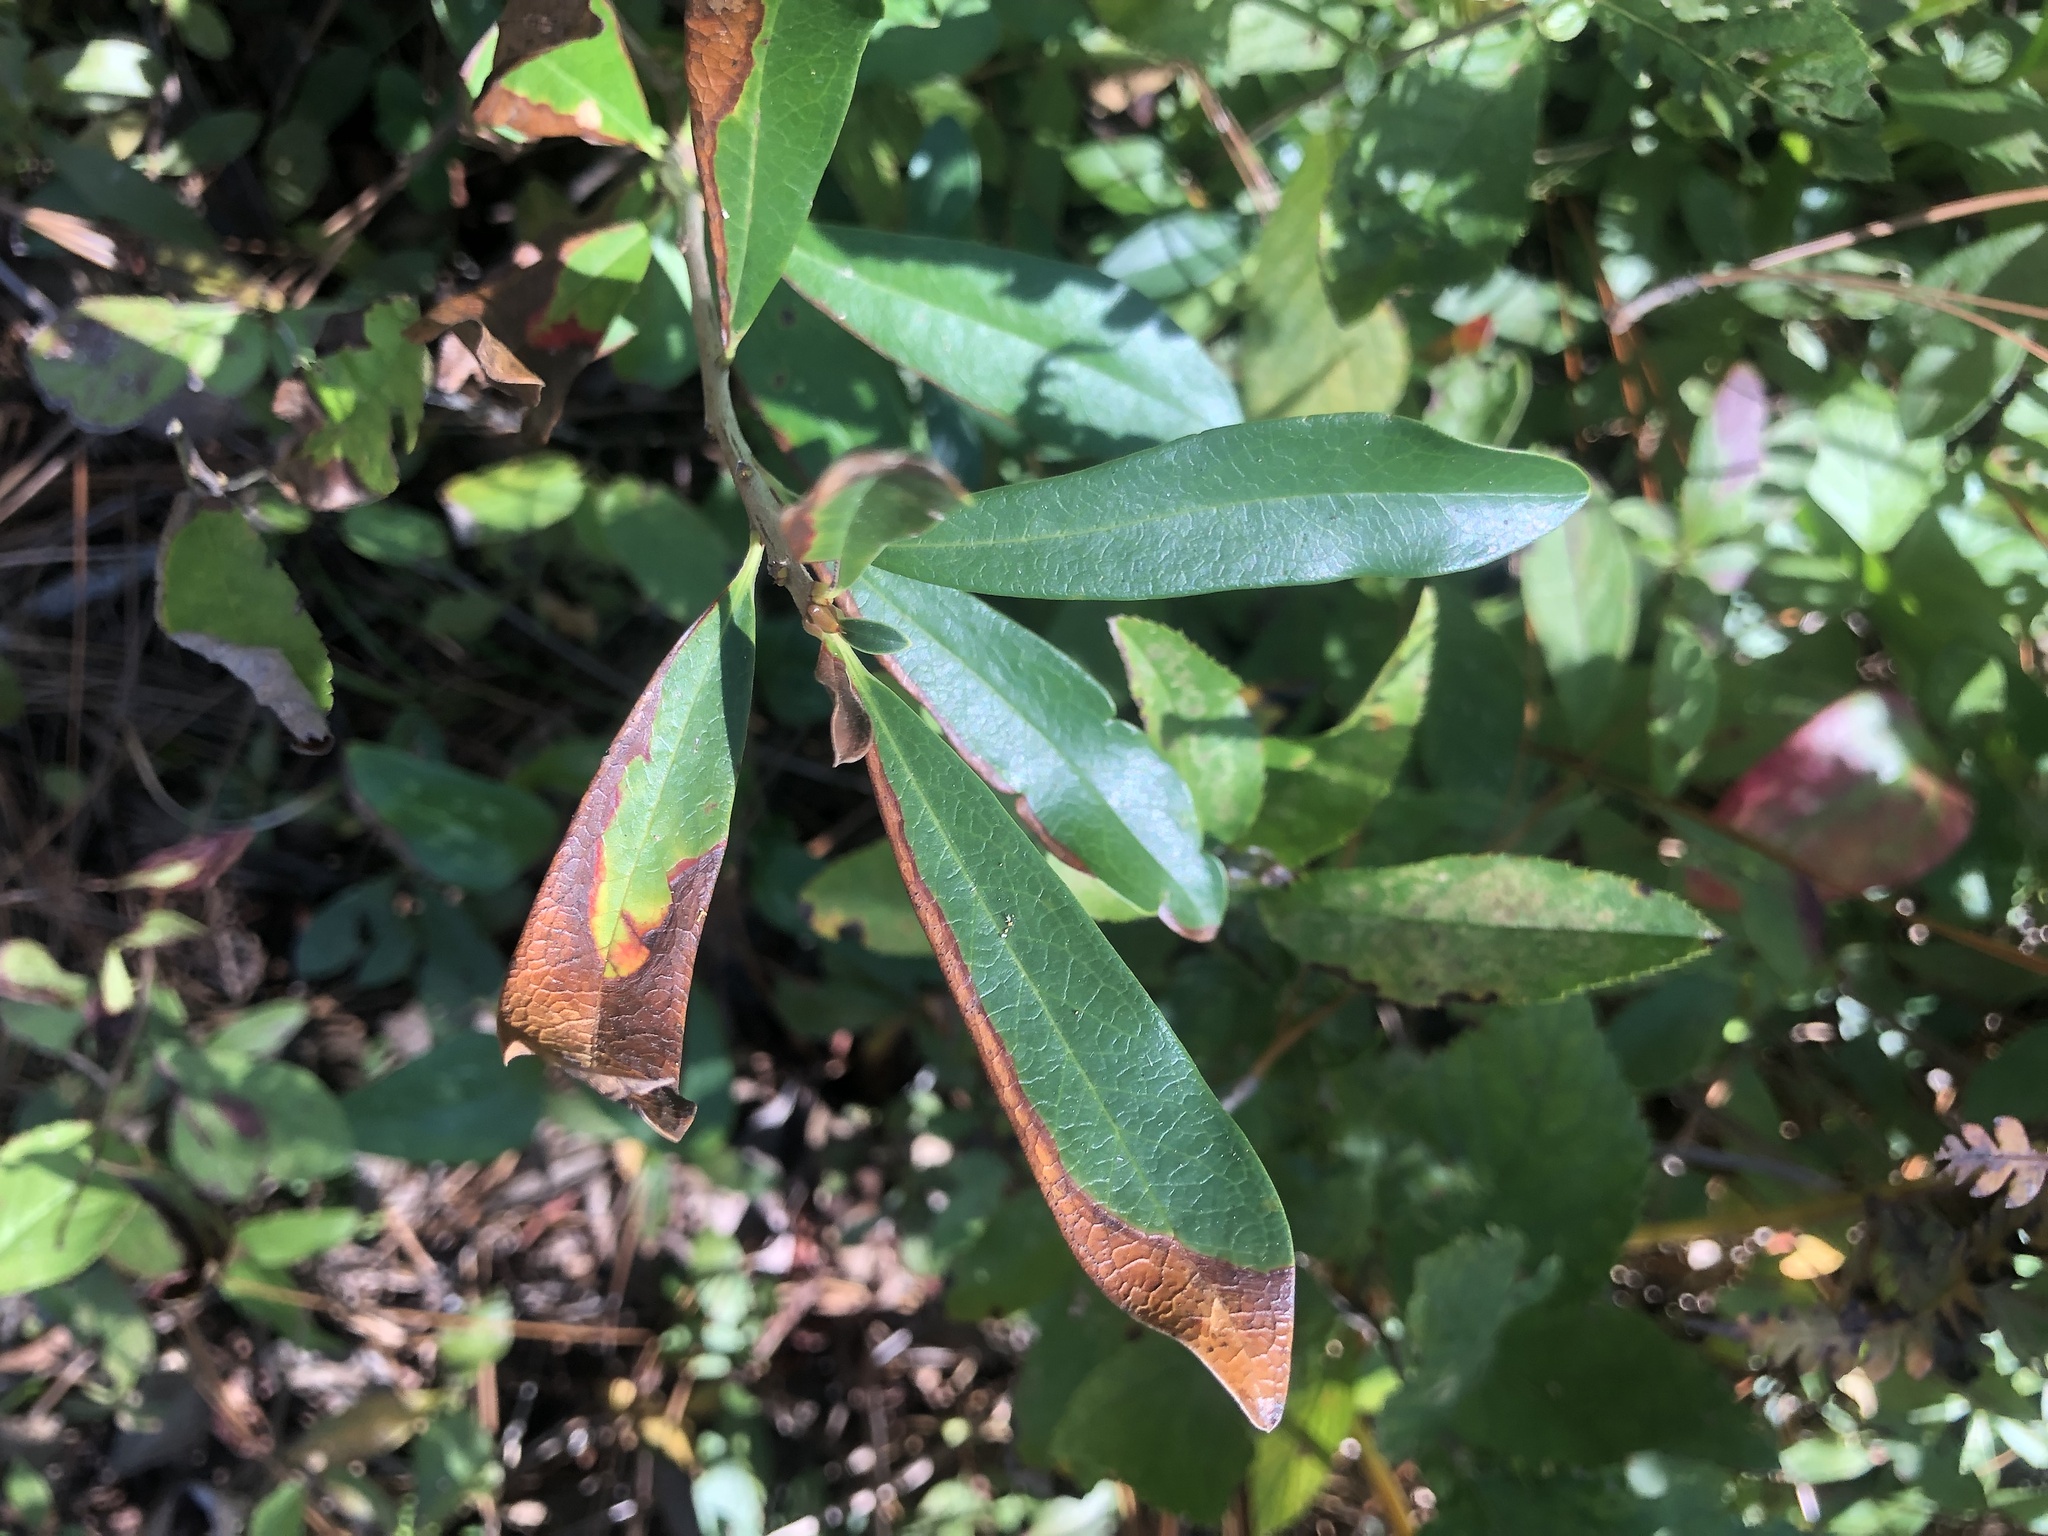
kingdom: Plantae
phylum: Tracheophyta
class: Magnoliopsida
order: Ericales
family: Cyrillaceae
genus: Cyrilla
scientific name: Cyrilla racemiflora
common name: Black titi
